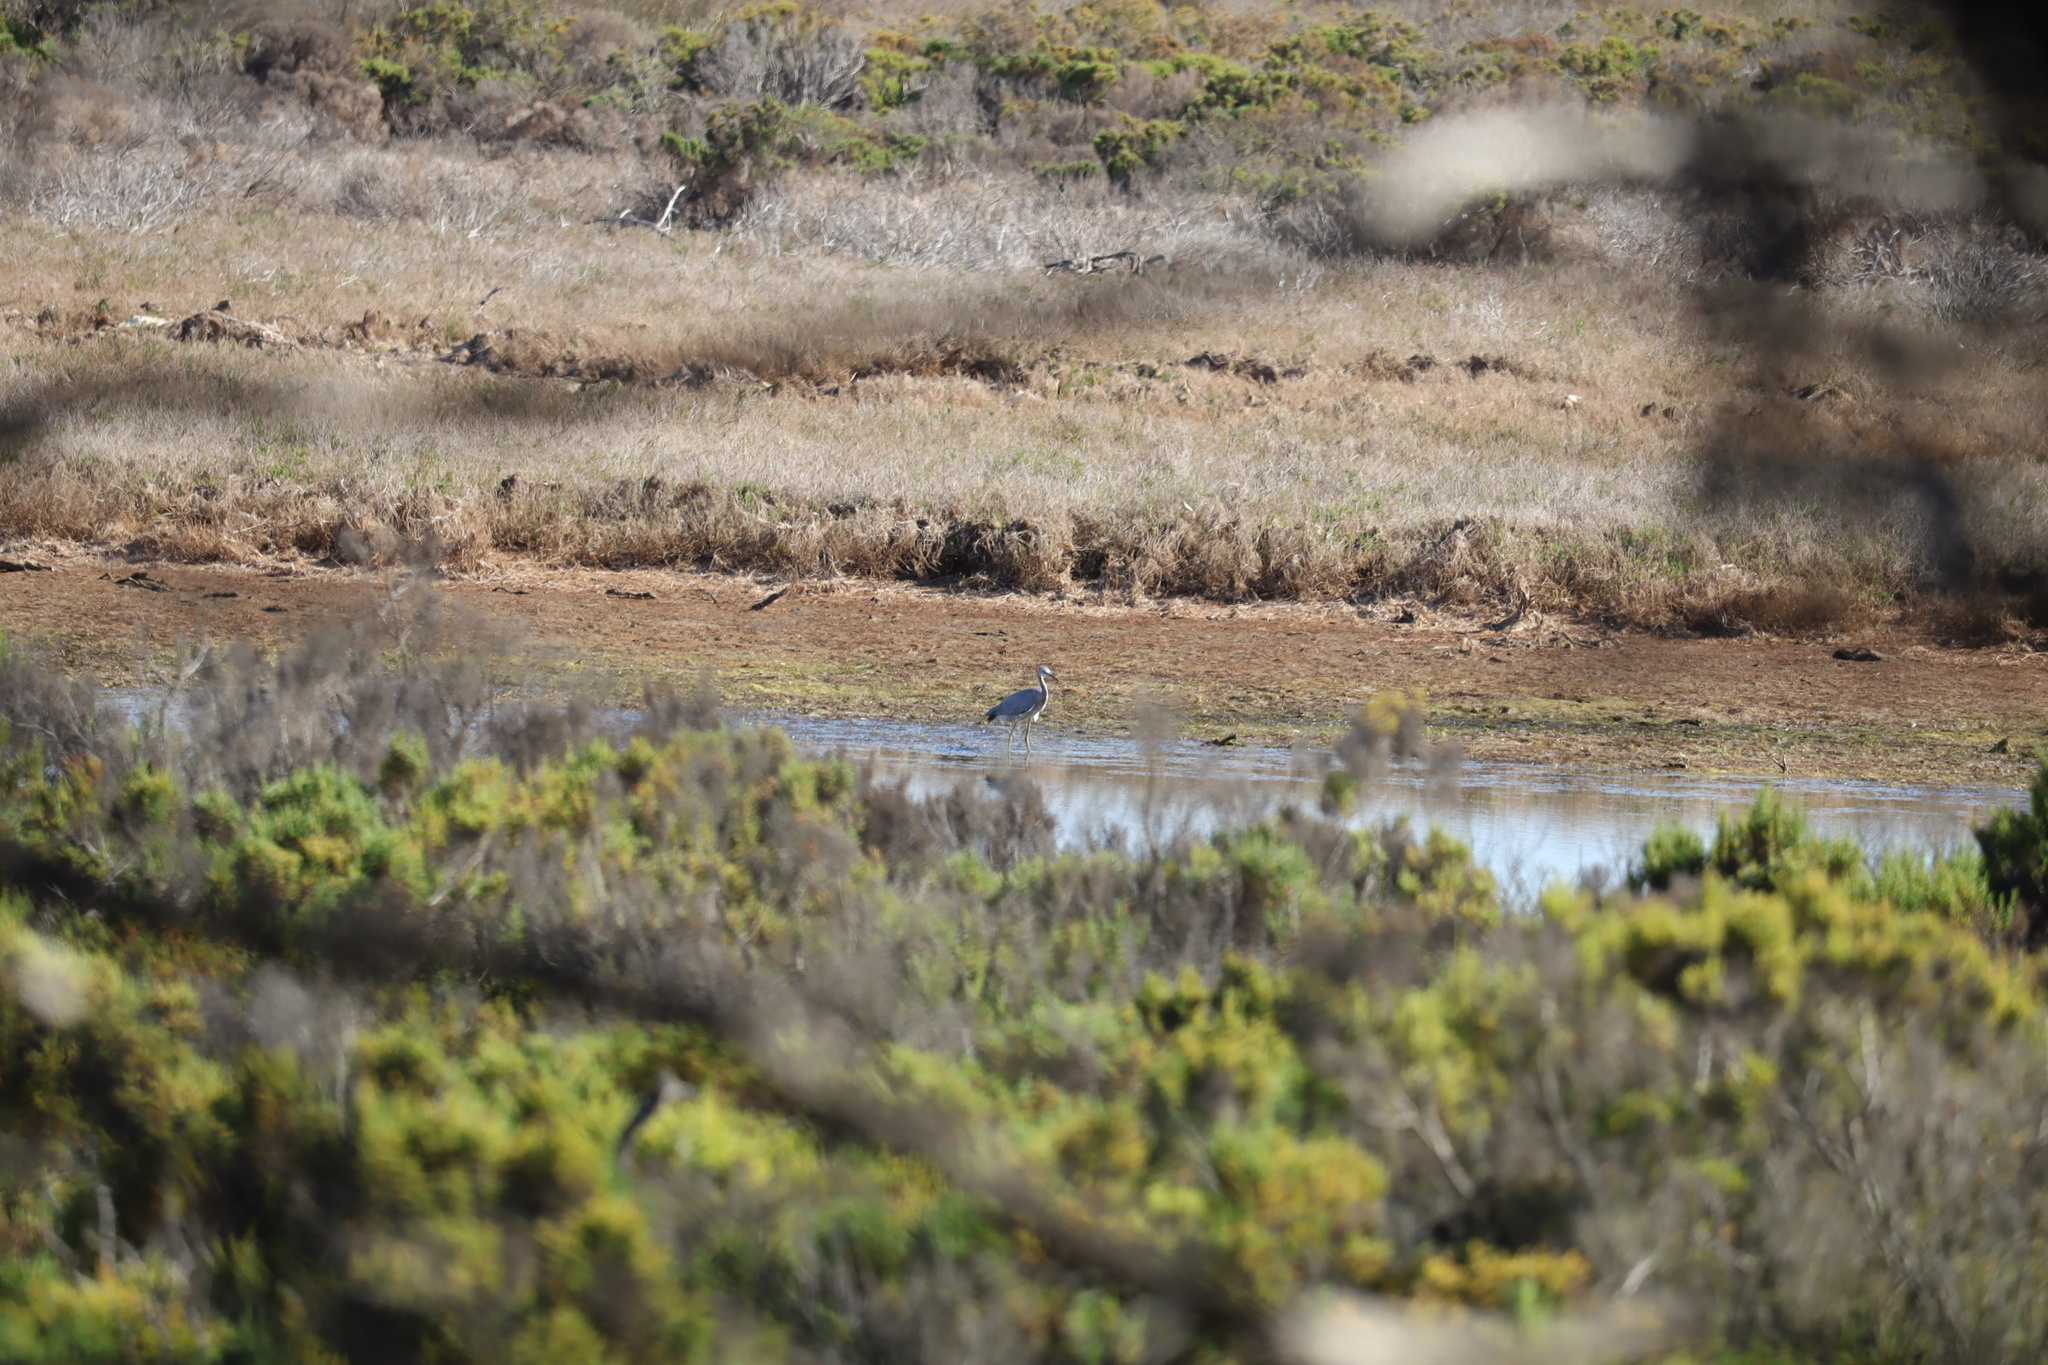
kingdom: Animalia
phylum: Chordata
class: Aves
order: Pelecaniformes
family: Ardeidae
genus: Egretta
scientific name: Egretta novaehollandiae
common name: White-faced heron
